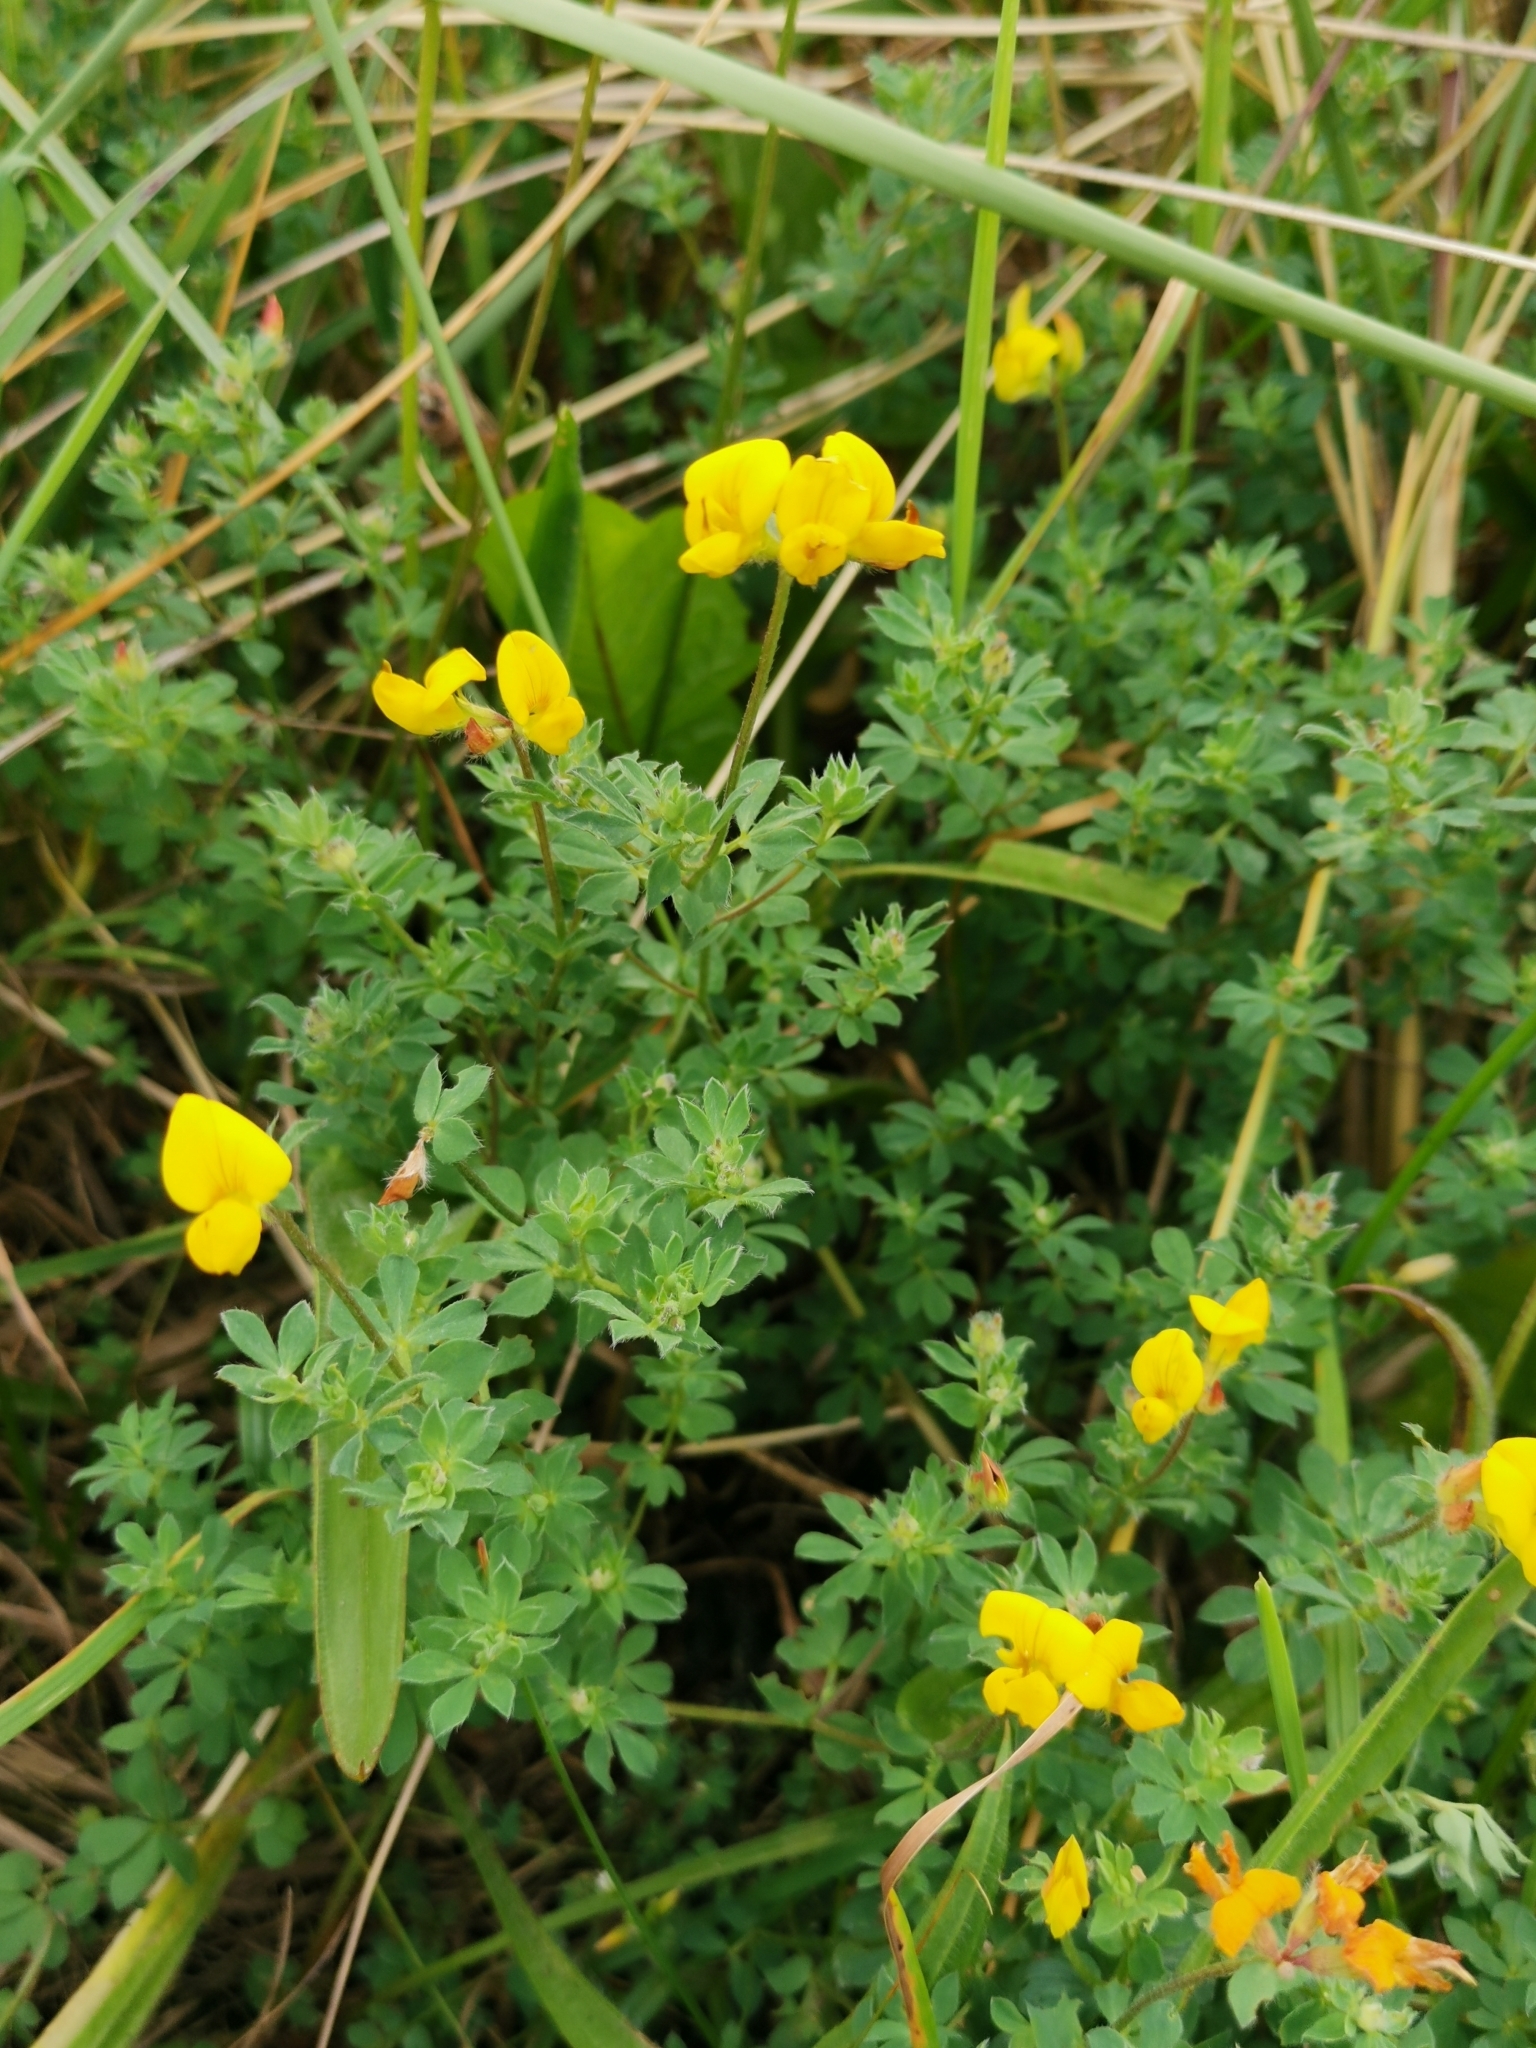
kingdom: Plantae
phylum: Tracheophyta
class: Magnoliopsida
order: Fabales
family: Fabaceae
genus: Lotus
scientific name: Lotus corniculatus
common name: Common bird's-foot-trefoil
